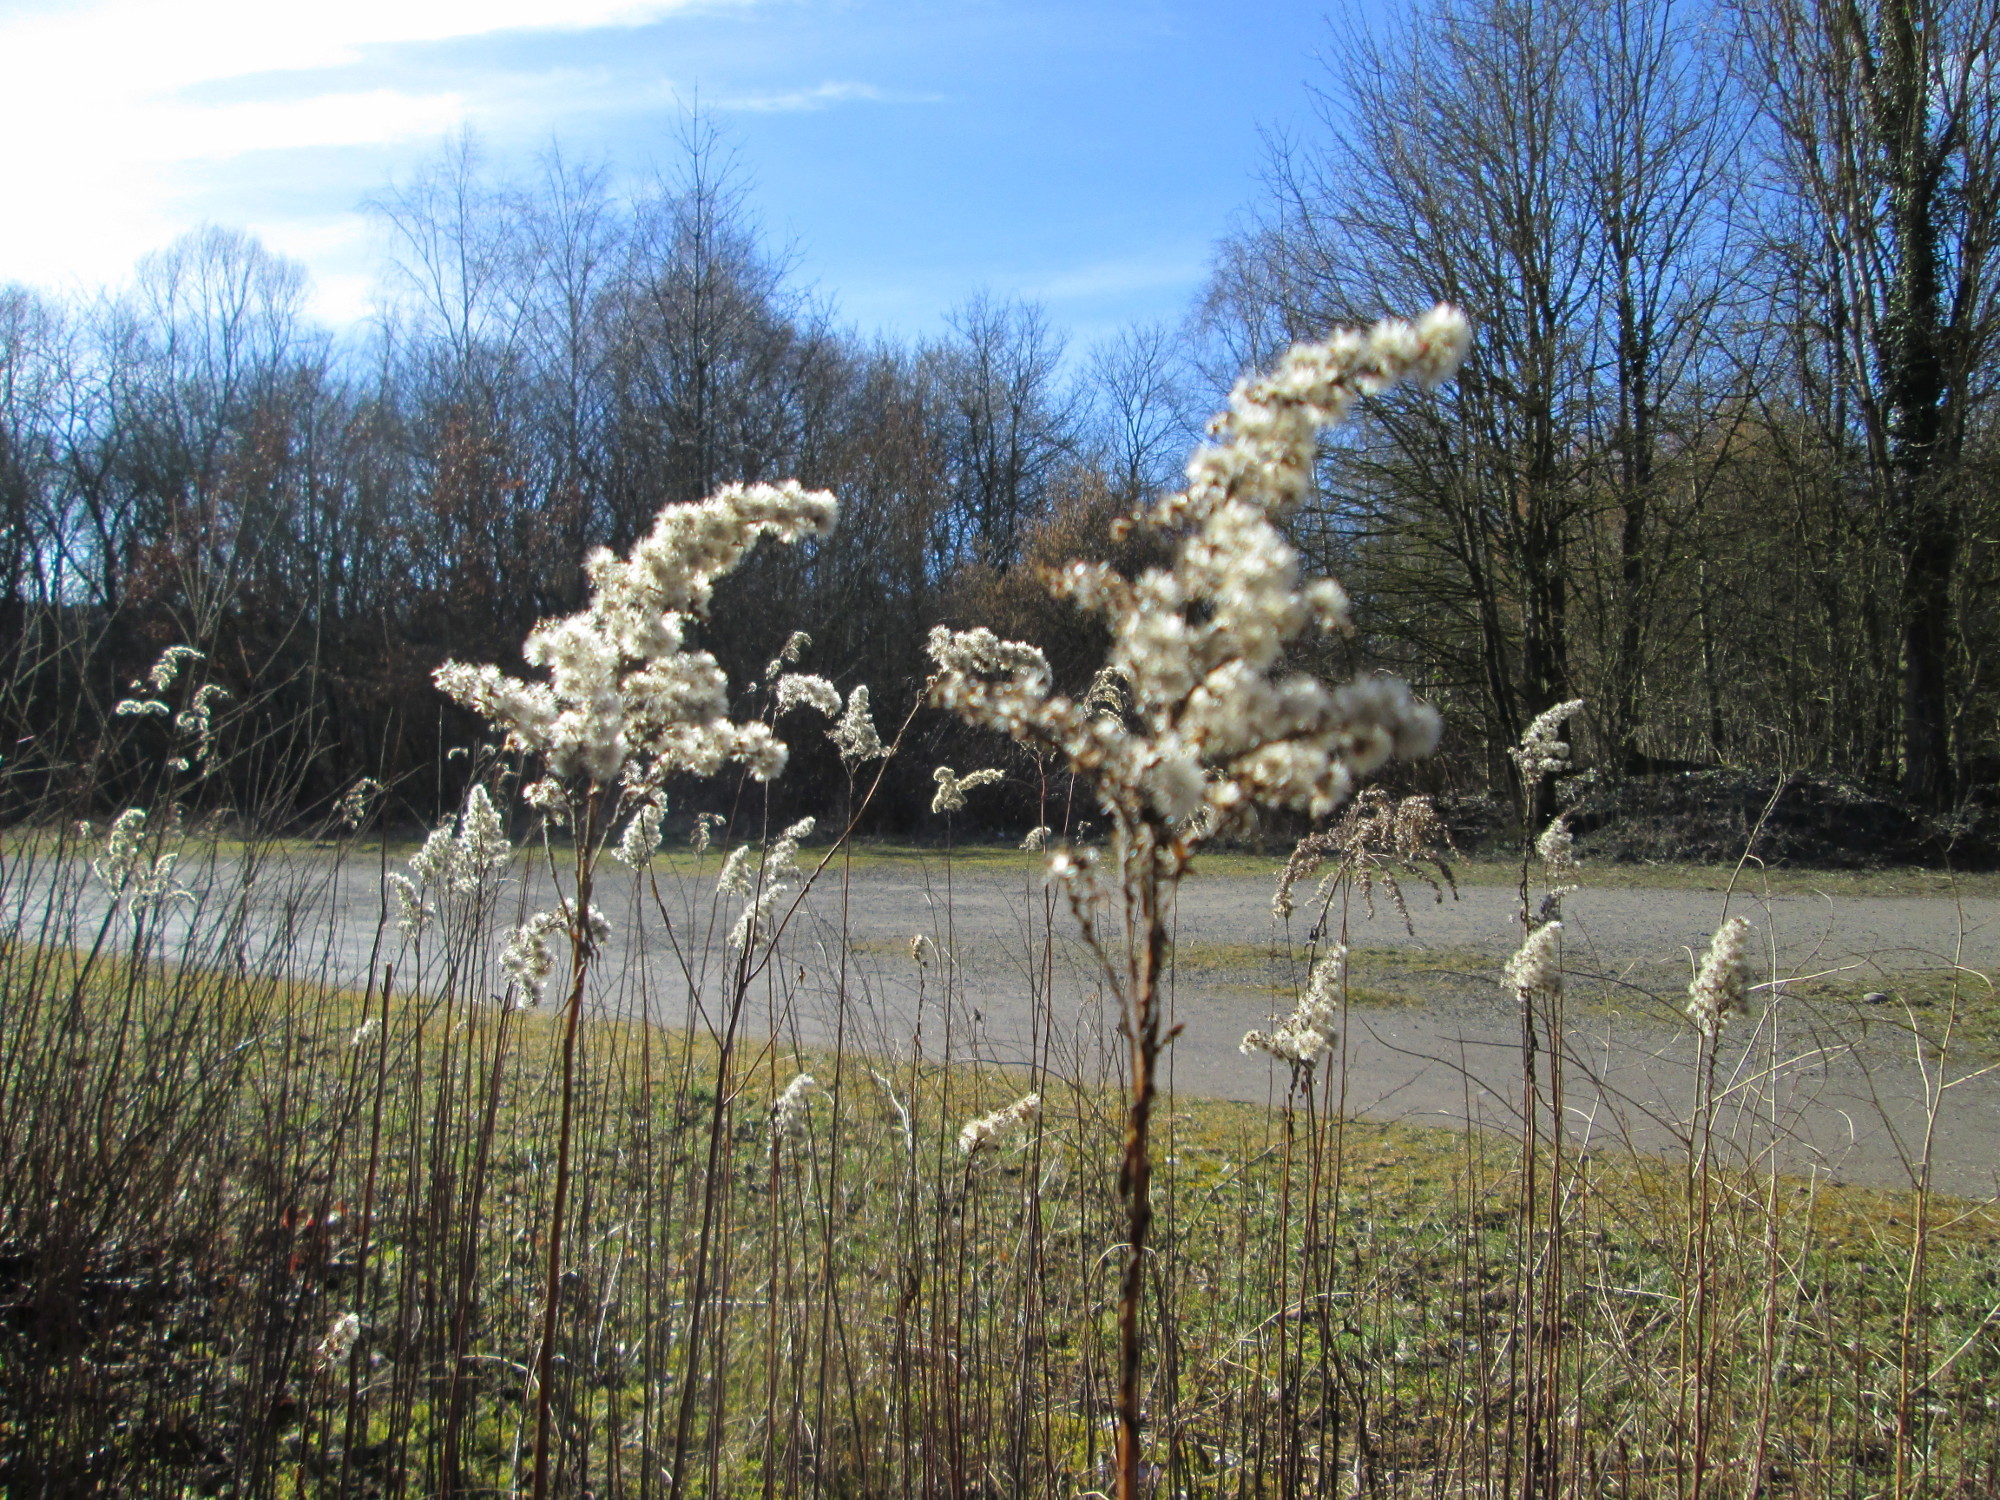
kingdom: Plantae
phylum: Tracheophyta
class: Magnoliopsida
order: Asterales
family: Asteraceae
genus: Solidago
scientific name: Solidago
